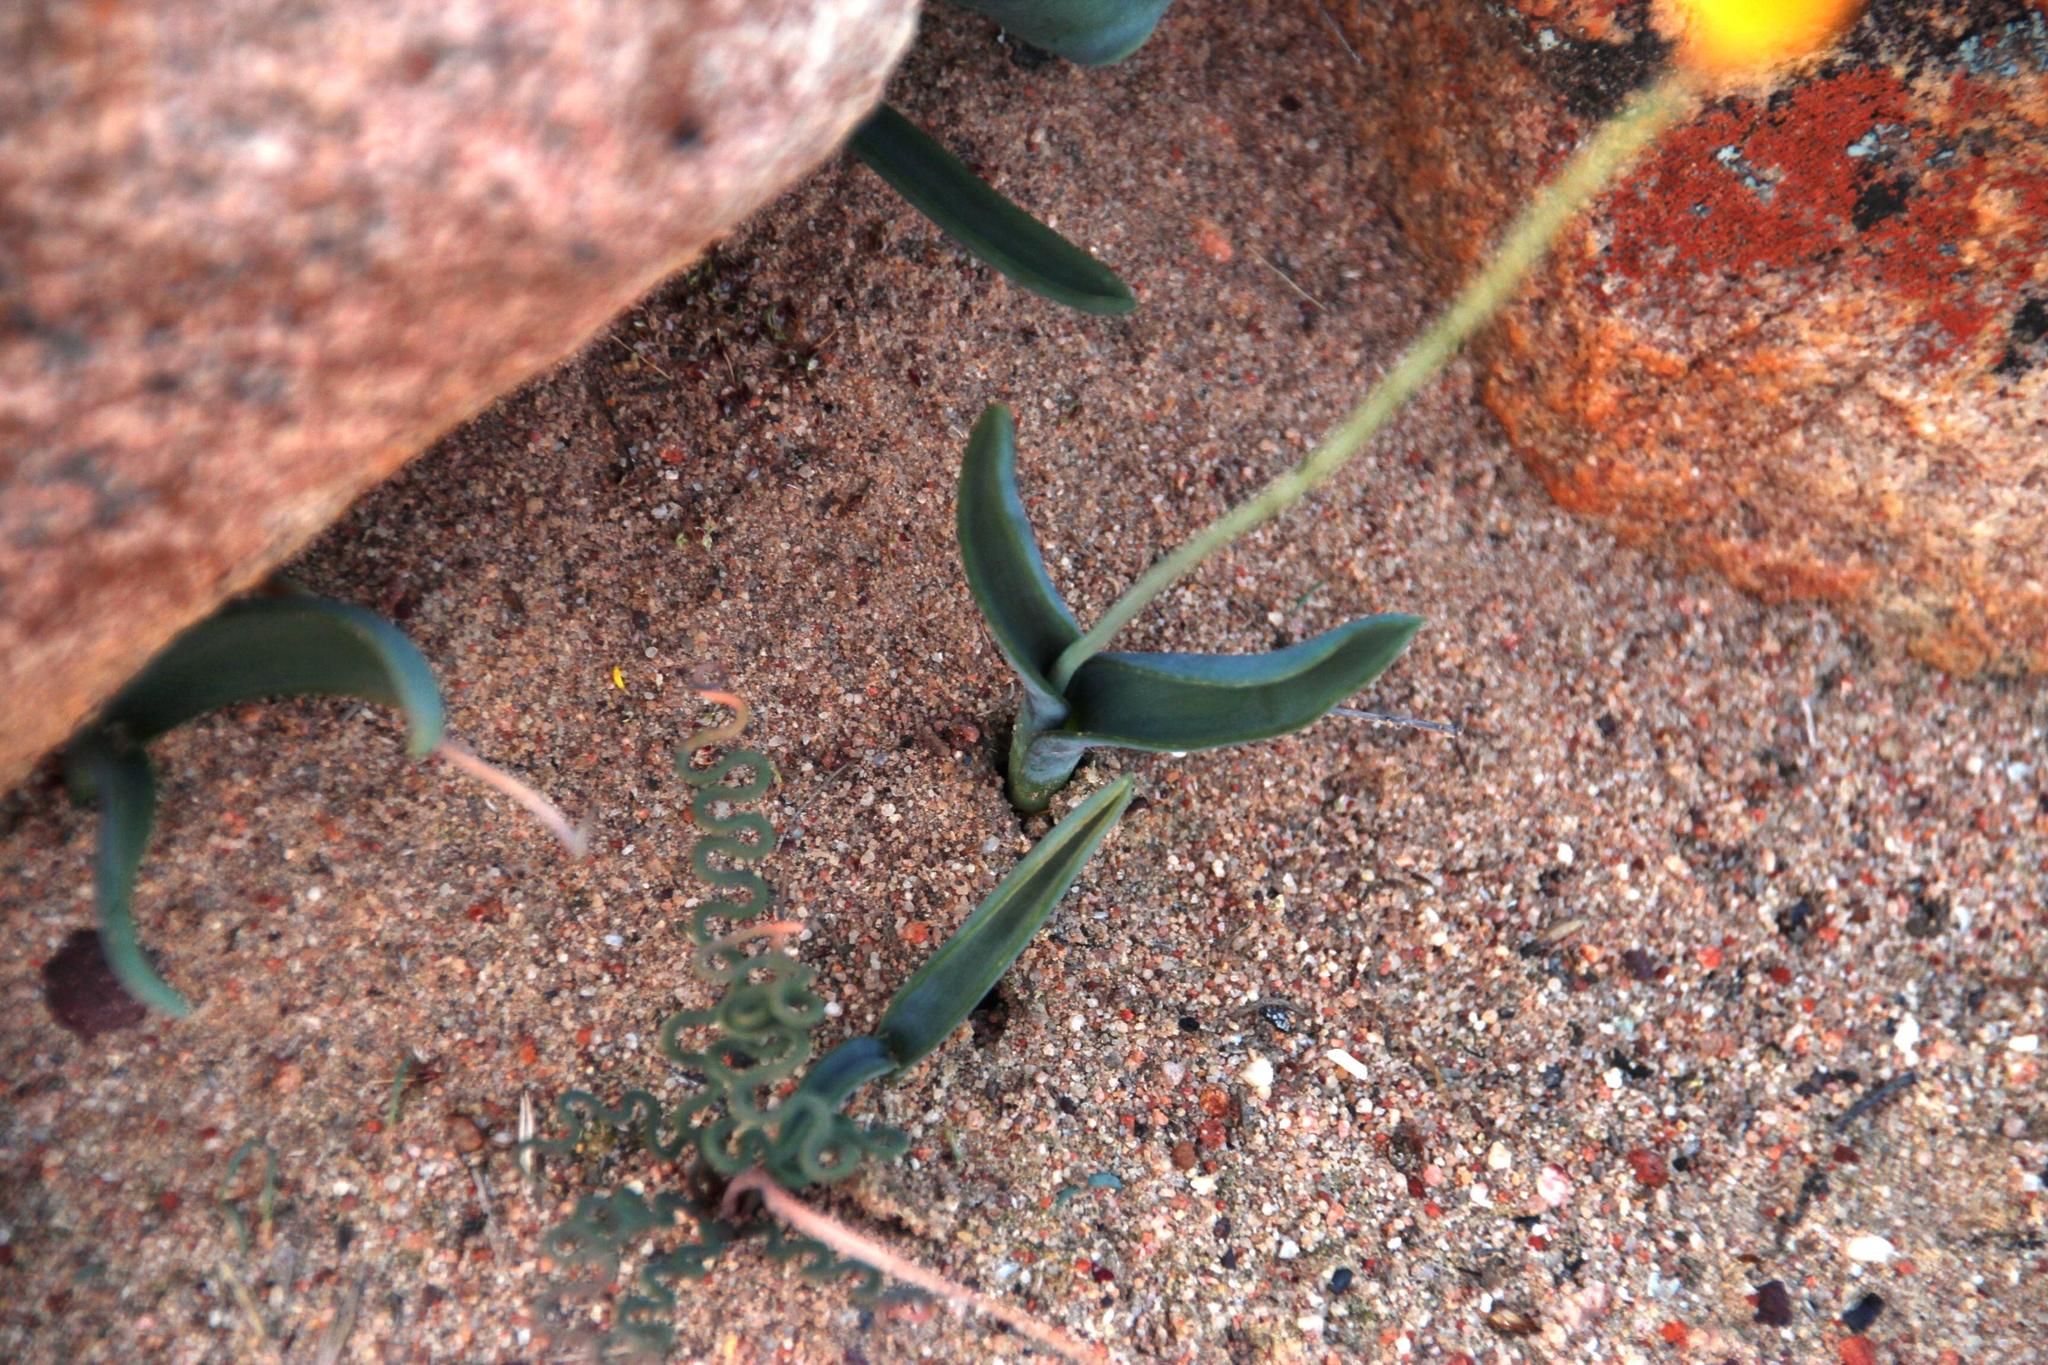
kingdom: Plantae
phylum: Tracheophyta
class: Liliopsida
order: Asparagales
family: Asparagaceae
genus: Ornithogalum
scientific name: Ornithogalum maculatum
